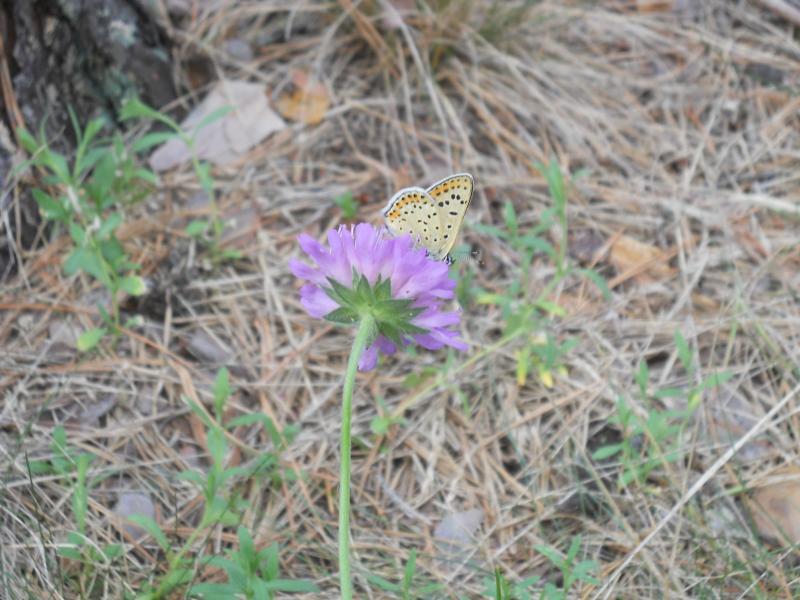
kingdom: Animalia
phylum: Arthropoda
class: Insecta
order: Lepidoptera
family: Lycaenidae
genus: Loweia
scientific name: Loweia tityrus
